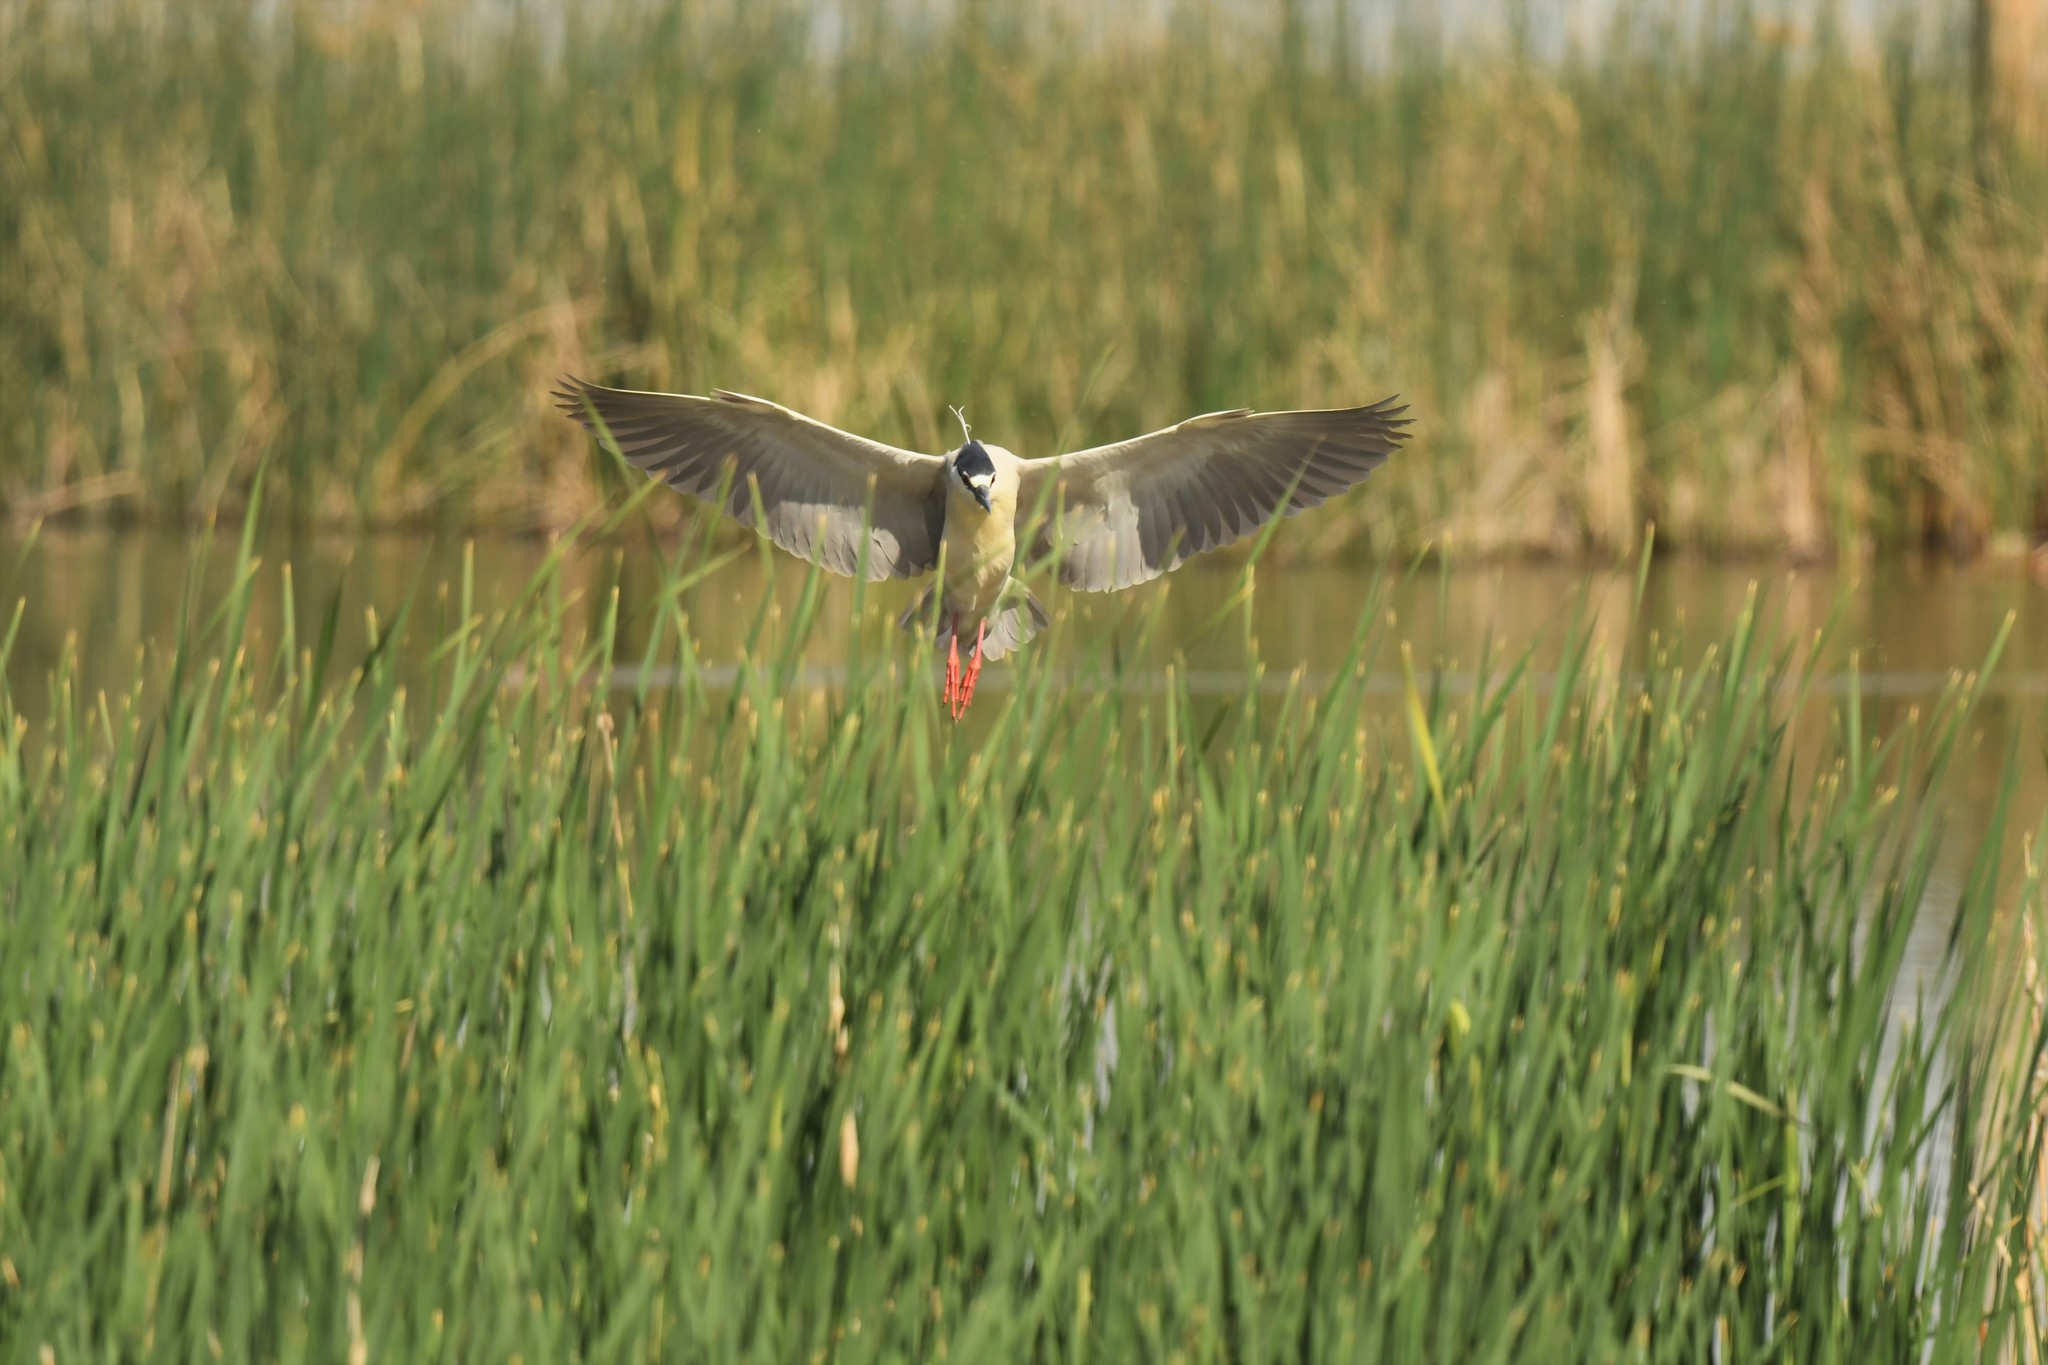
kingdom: Animalia
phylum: Chordata
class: Aves
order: Pelecaniformes
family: Ardeidae
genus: Nycticorax
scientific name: Nycticorax nycticorax
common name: Black-crowned night heron
